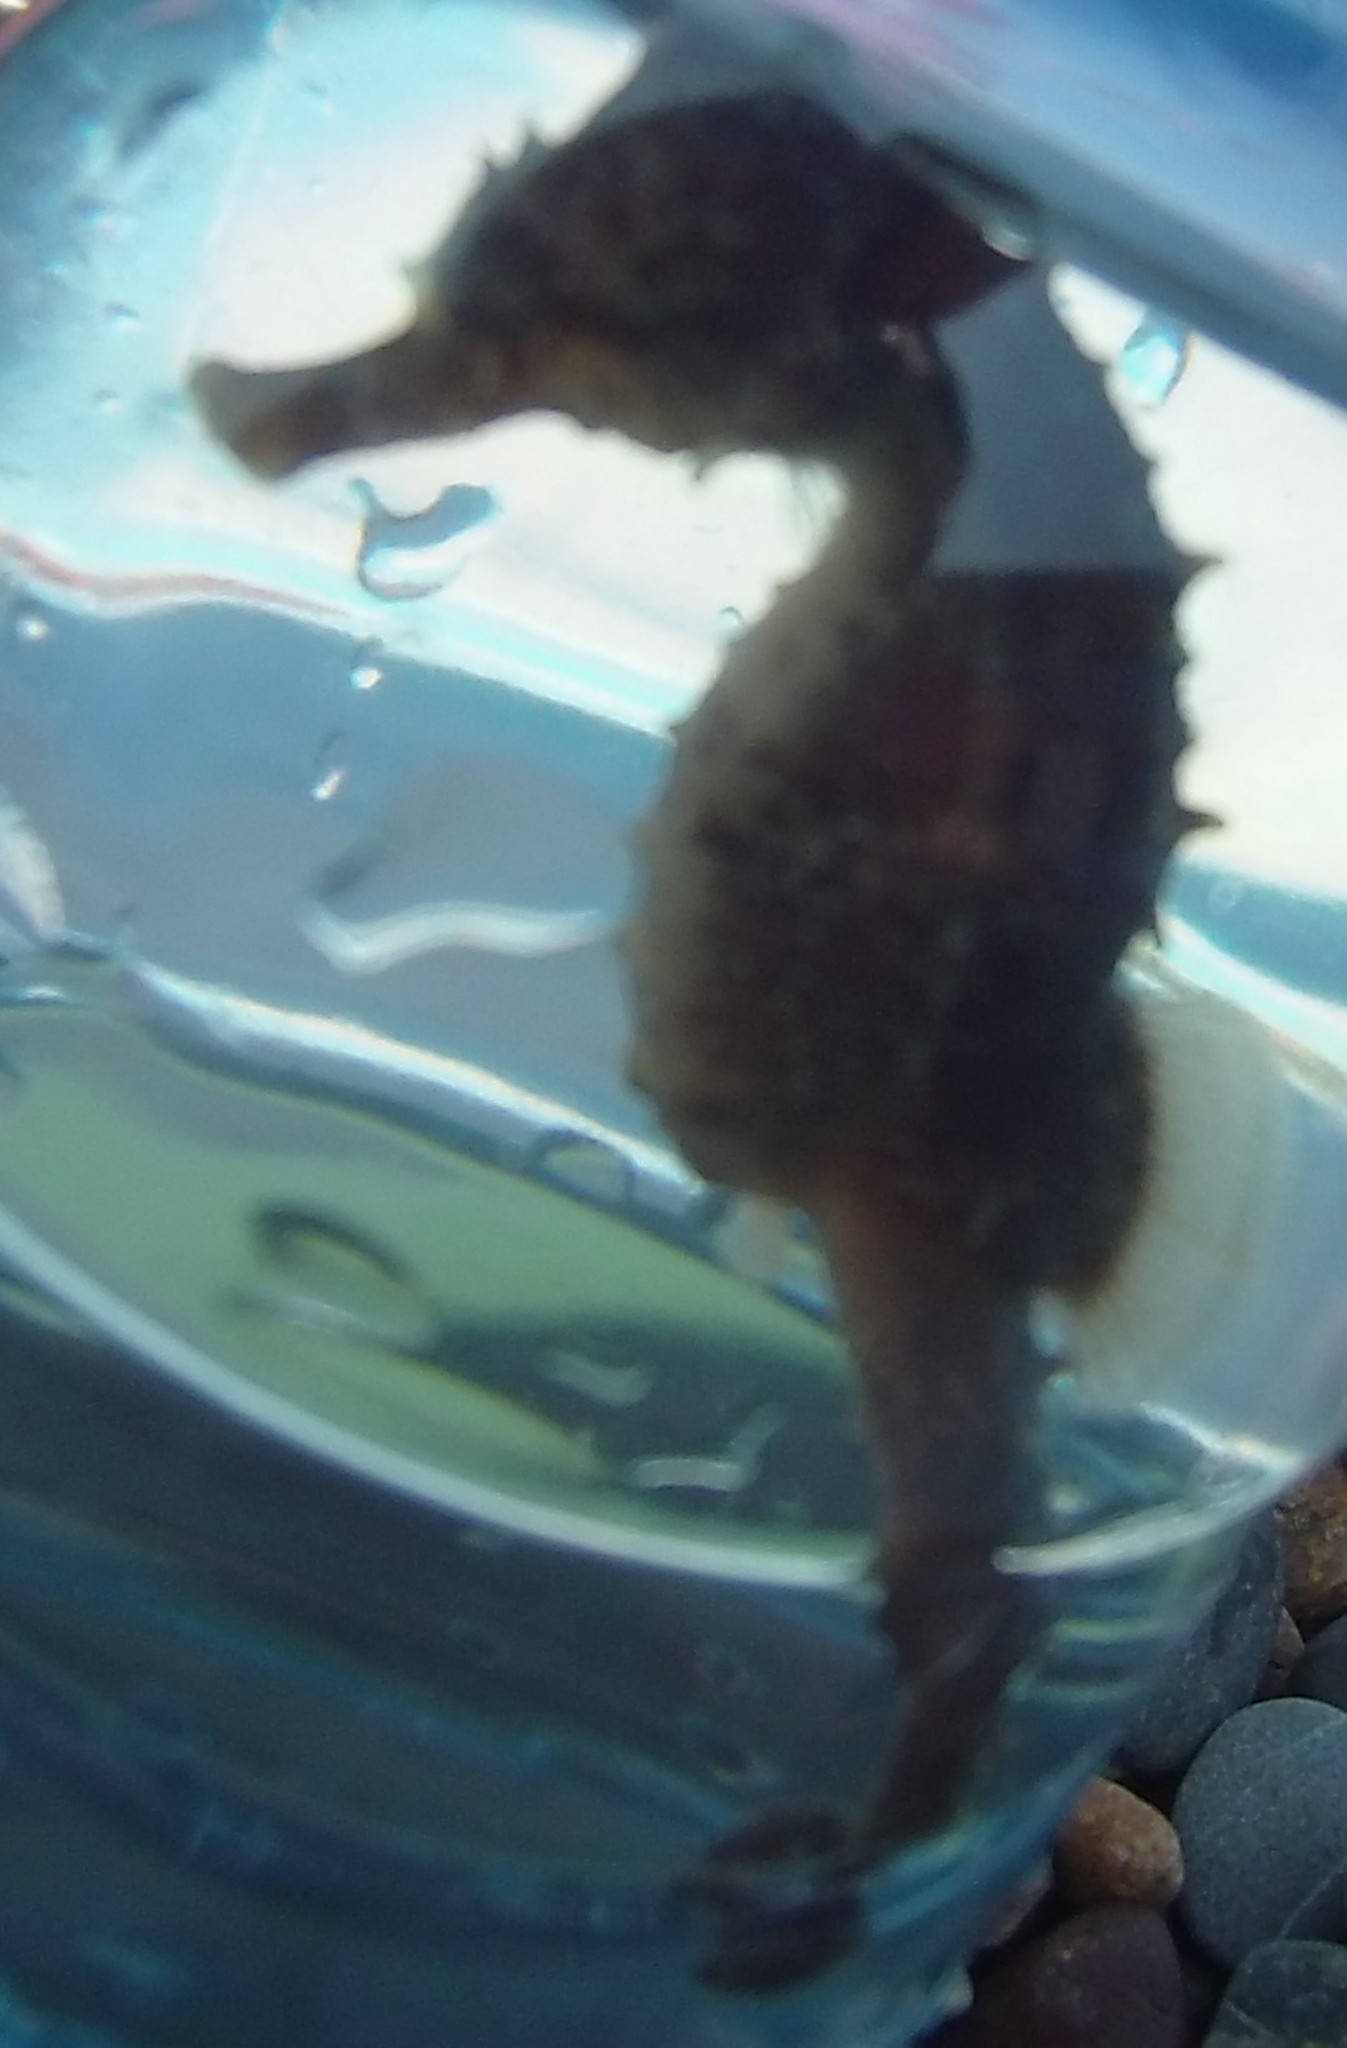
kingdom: Animalia
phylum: Chordata
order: Syngnathiformes
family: Syngnathidae
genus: Hippocampus
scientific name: Hippocampus guttulatus
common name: Long-snouted seahorse
